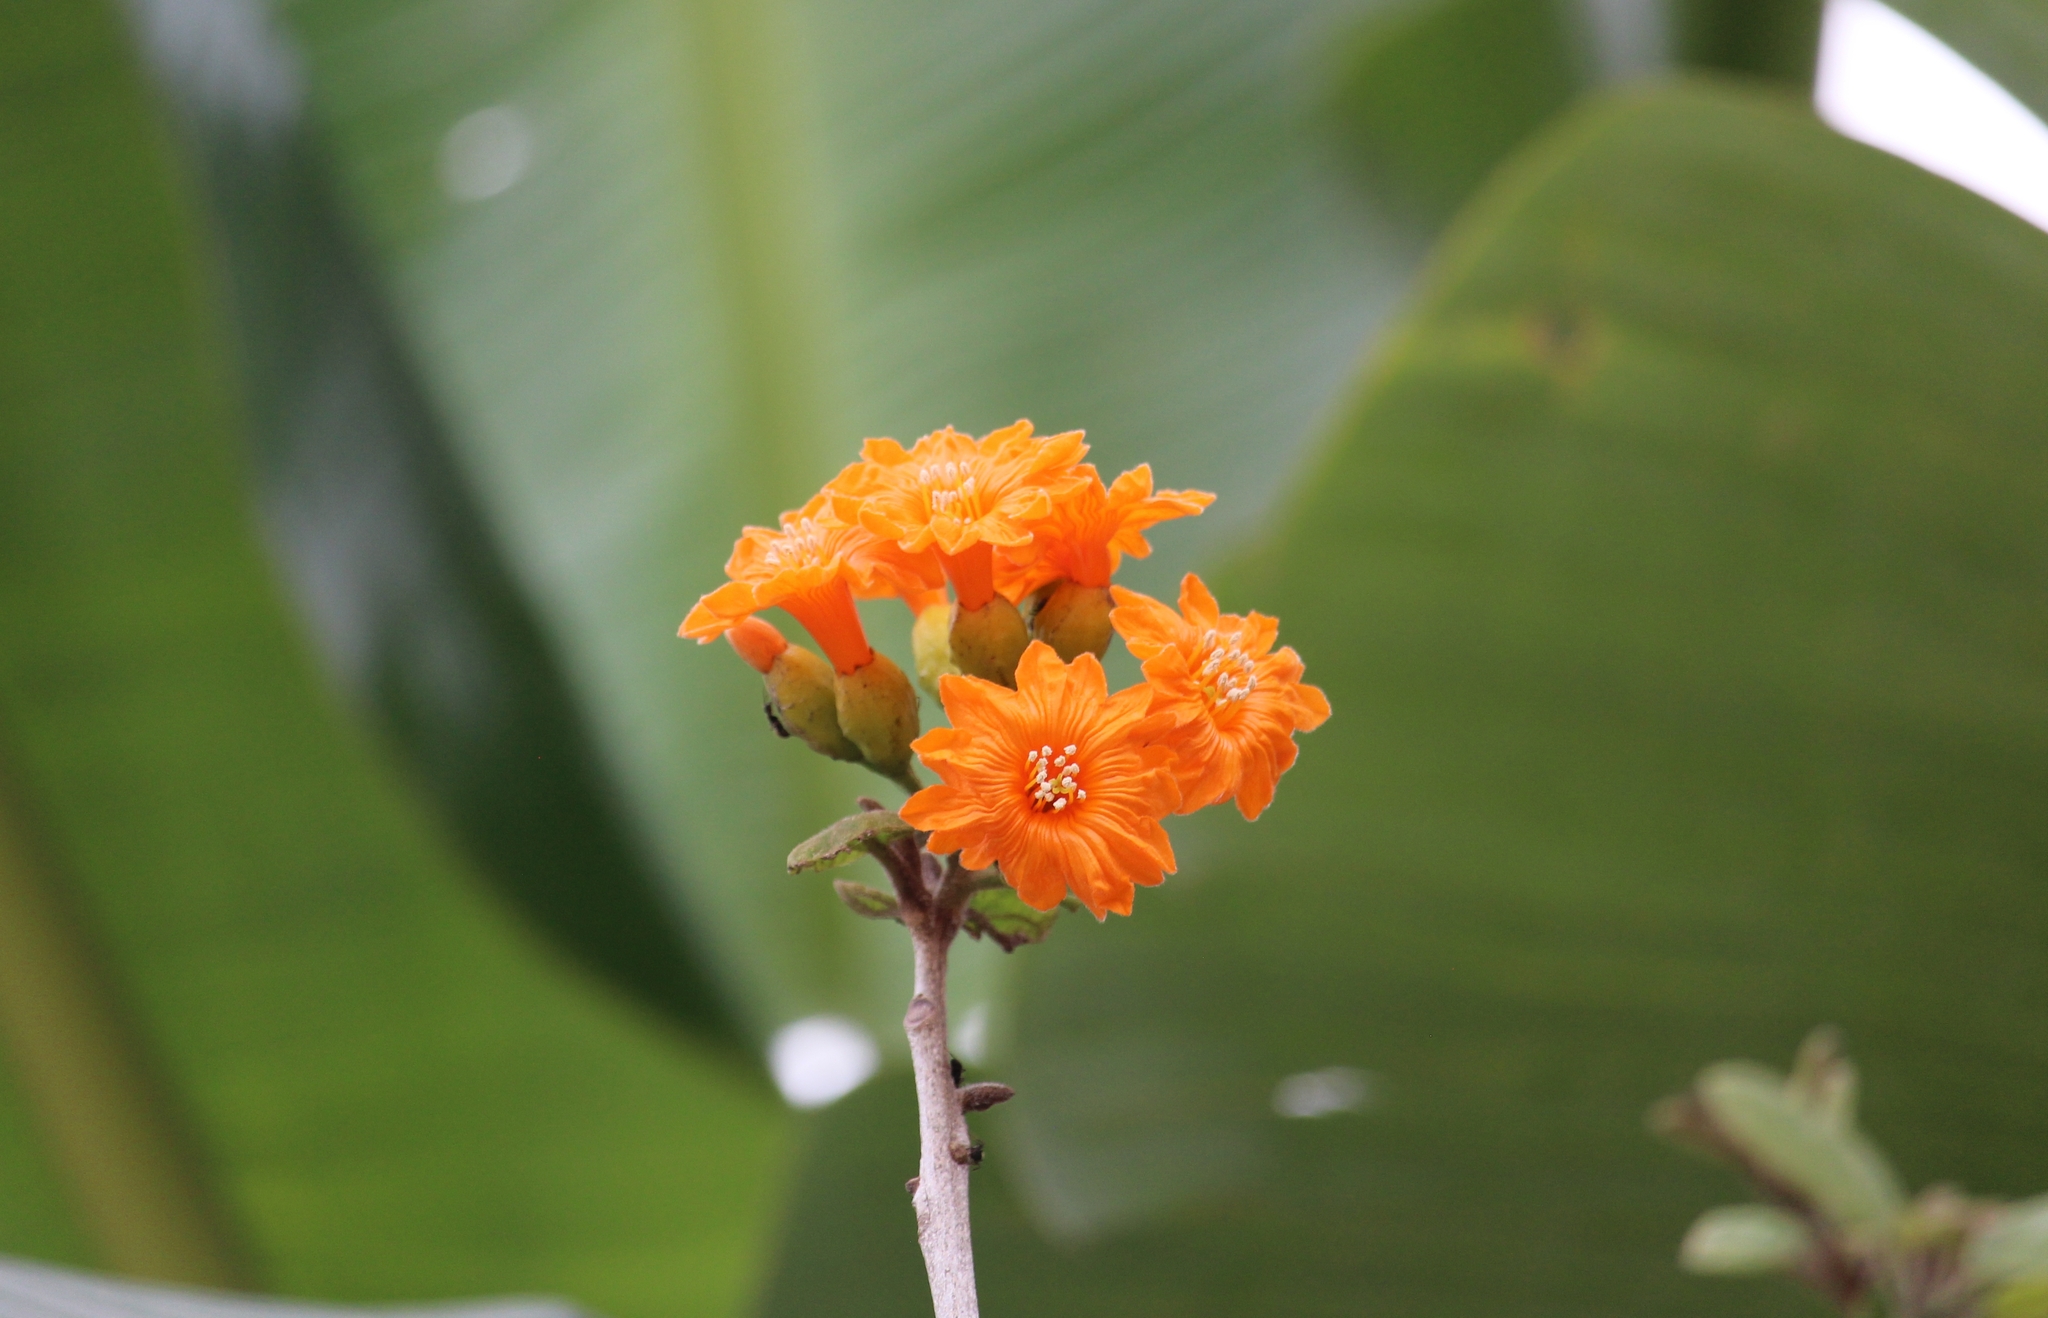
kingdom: Plantae
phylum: Tracheophyta
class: Magnoliopsida
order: Boraginales
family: Cordiaceae
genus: Cordia
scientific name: Cordia dodecandra
